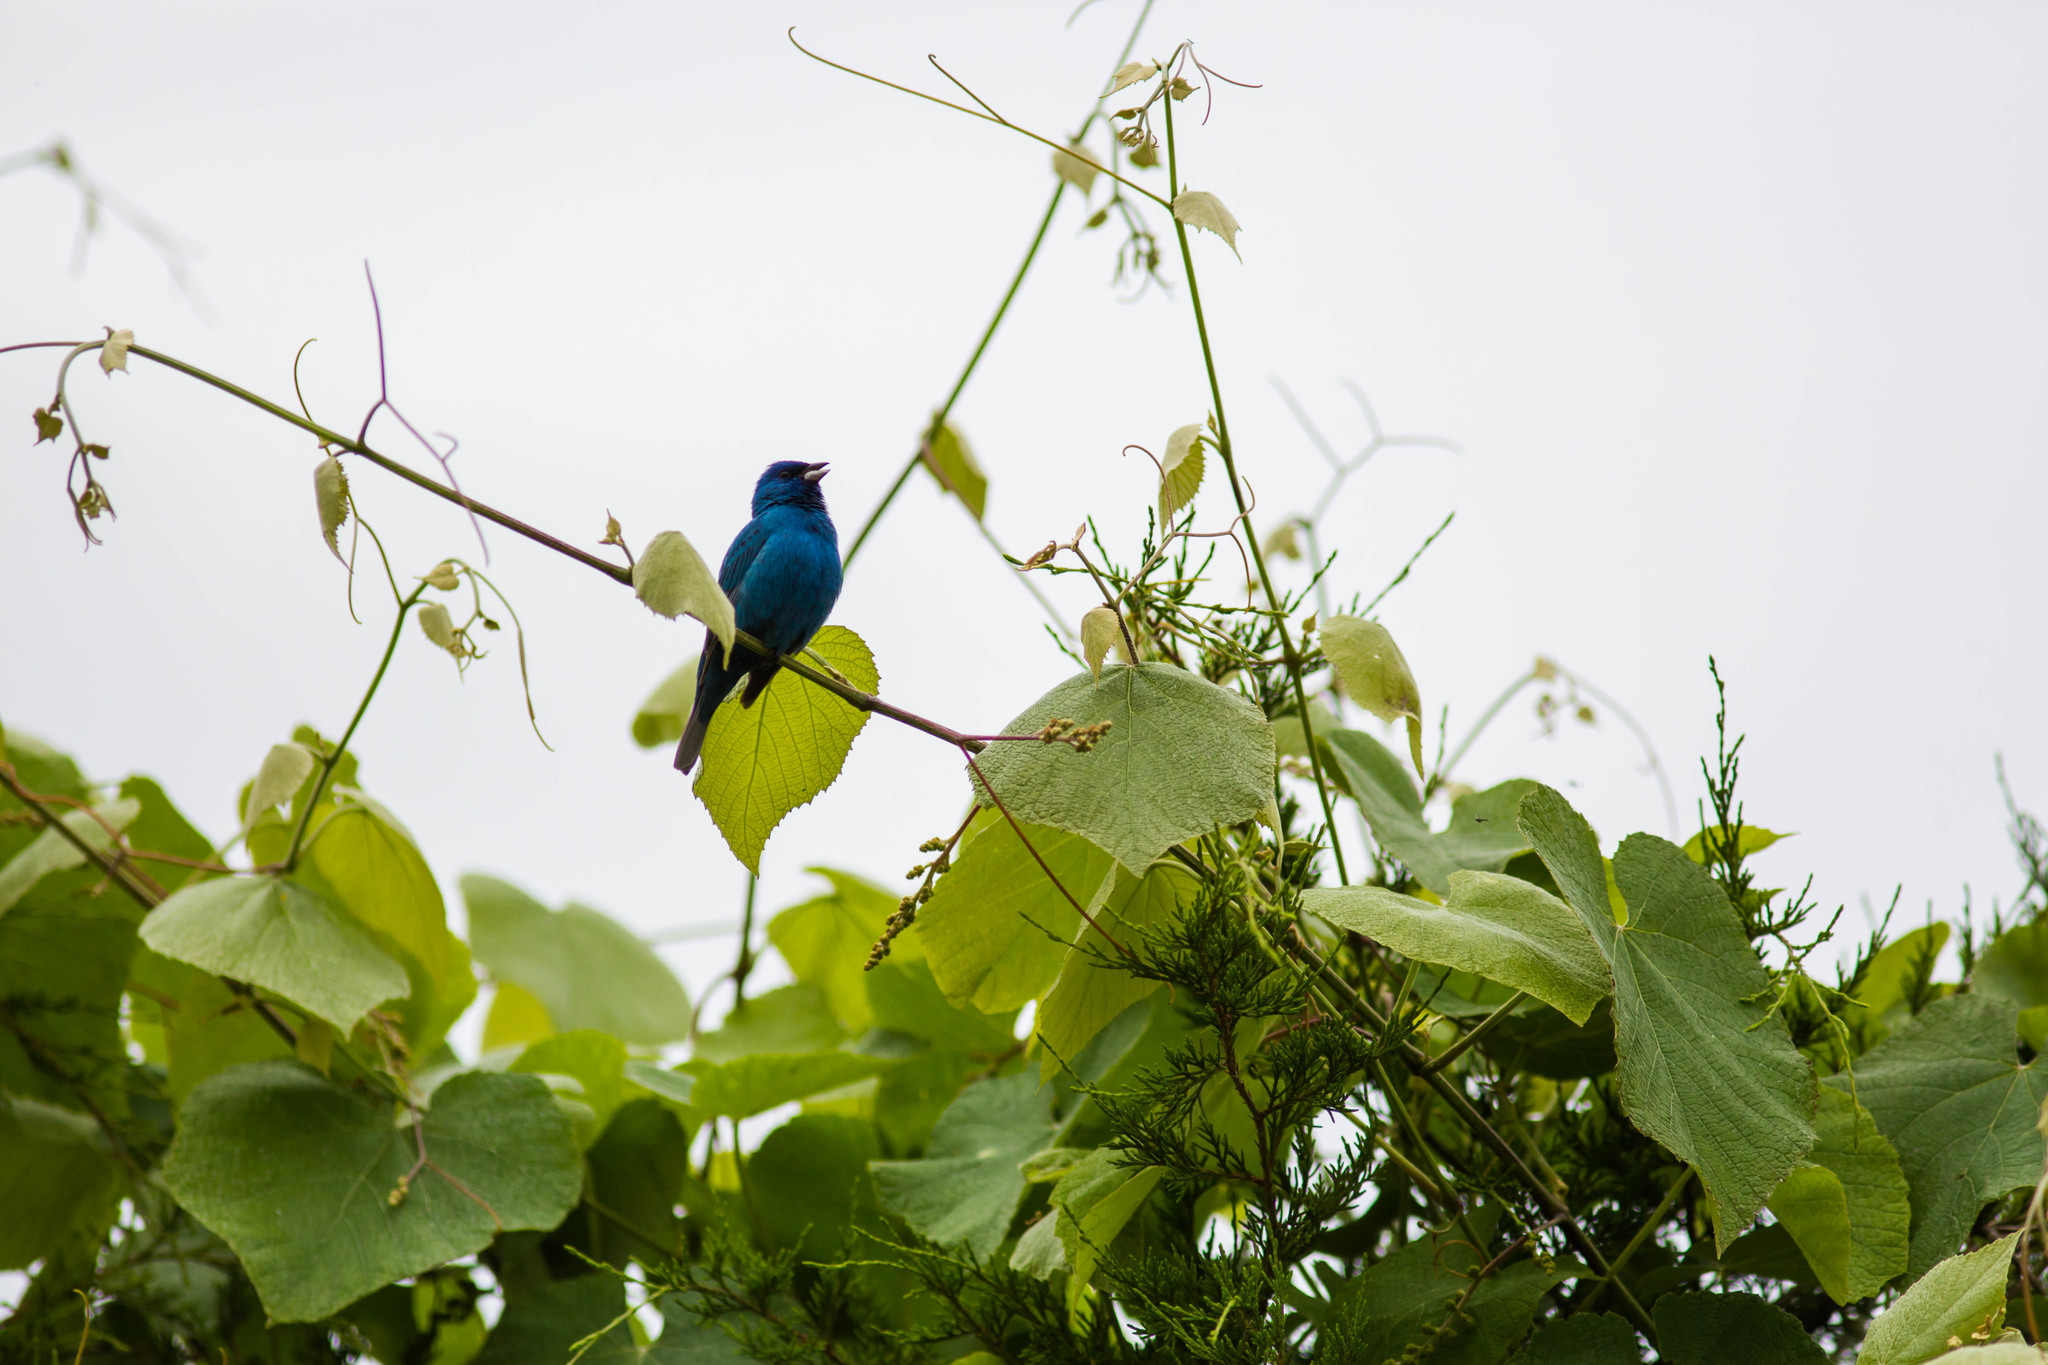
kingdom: Animalia
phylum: Chordata
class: Aves
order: Passeriformes
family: Cardinalidae
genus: Passerina
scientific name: Passerina cyanea
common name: Indigo bunting
